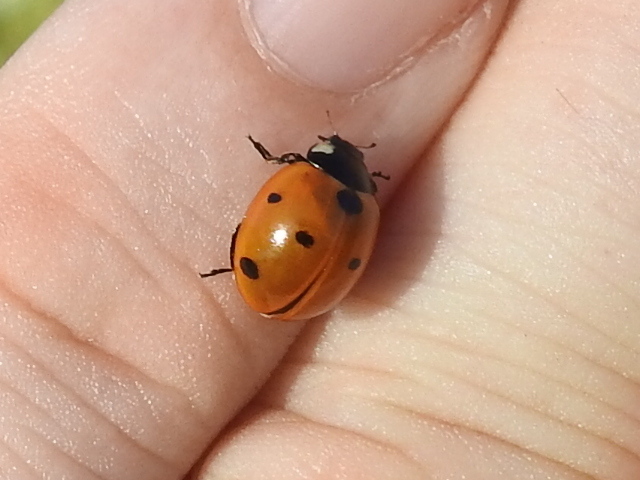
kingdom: Animalia
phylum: Arthropoda
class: Insecta
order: Coleoptera
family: Coccinellidae
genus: Coccinella
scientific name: Coccinella septempunctata
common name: Sevenspotted lady beetle
